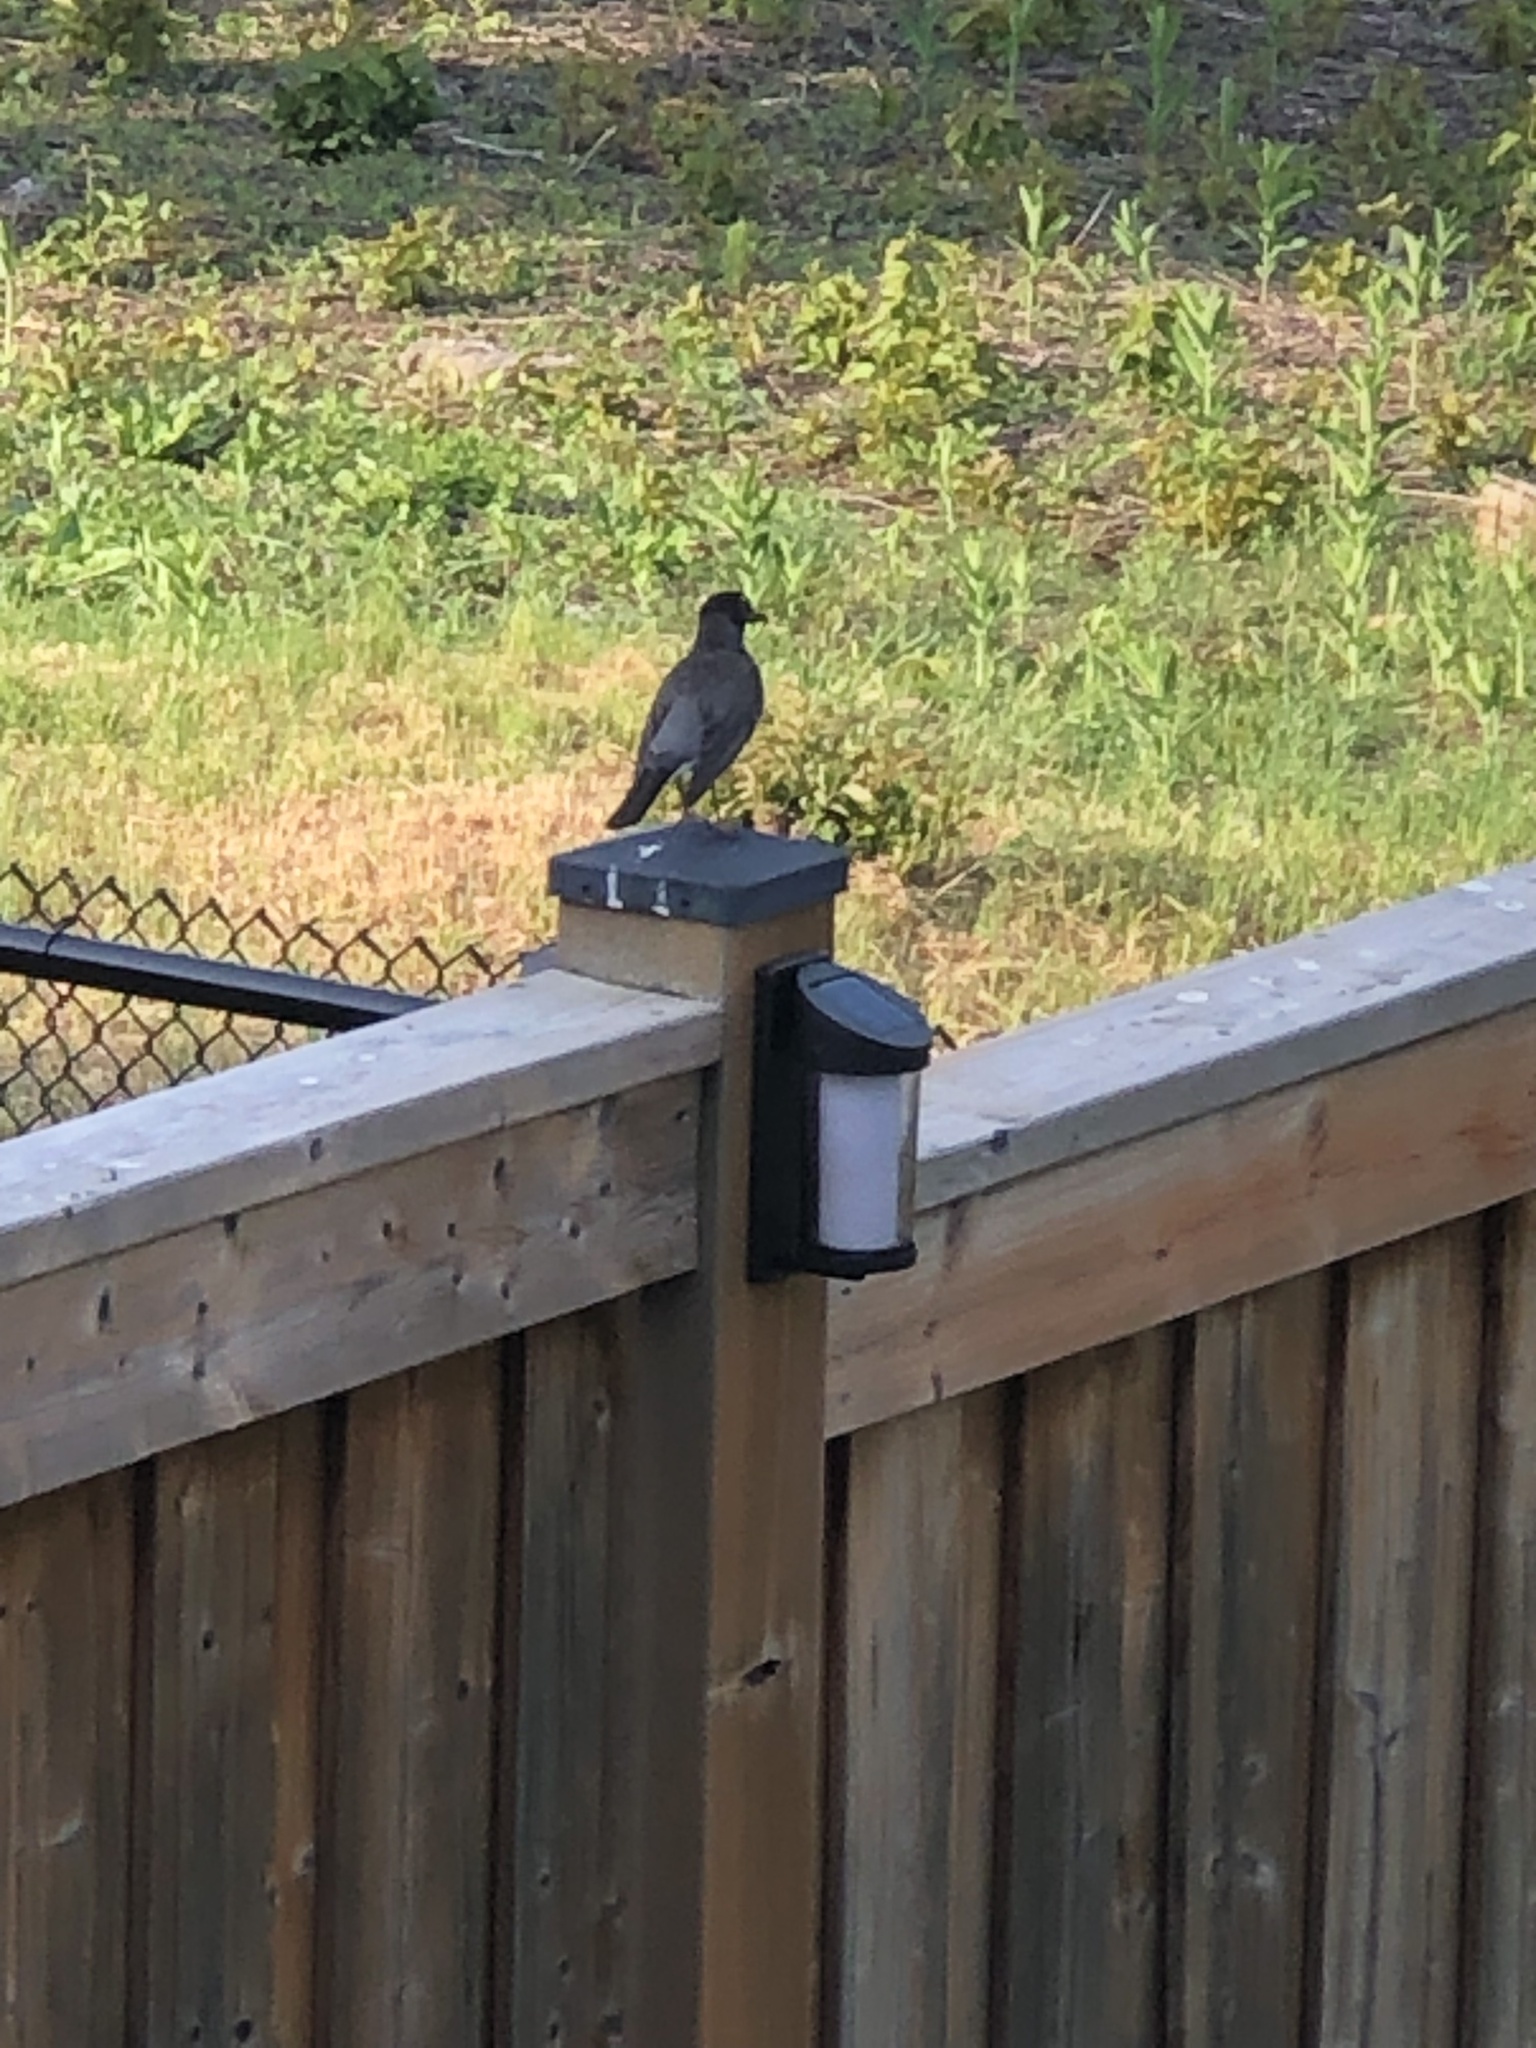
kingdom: Animalia
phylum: Chordata
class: Aves
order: Passeriformes
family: Turdidae
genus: Turdus
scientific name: Turdus migratorius
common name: American robin
